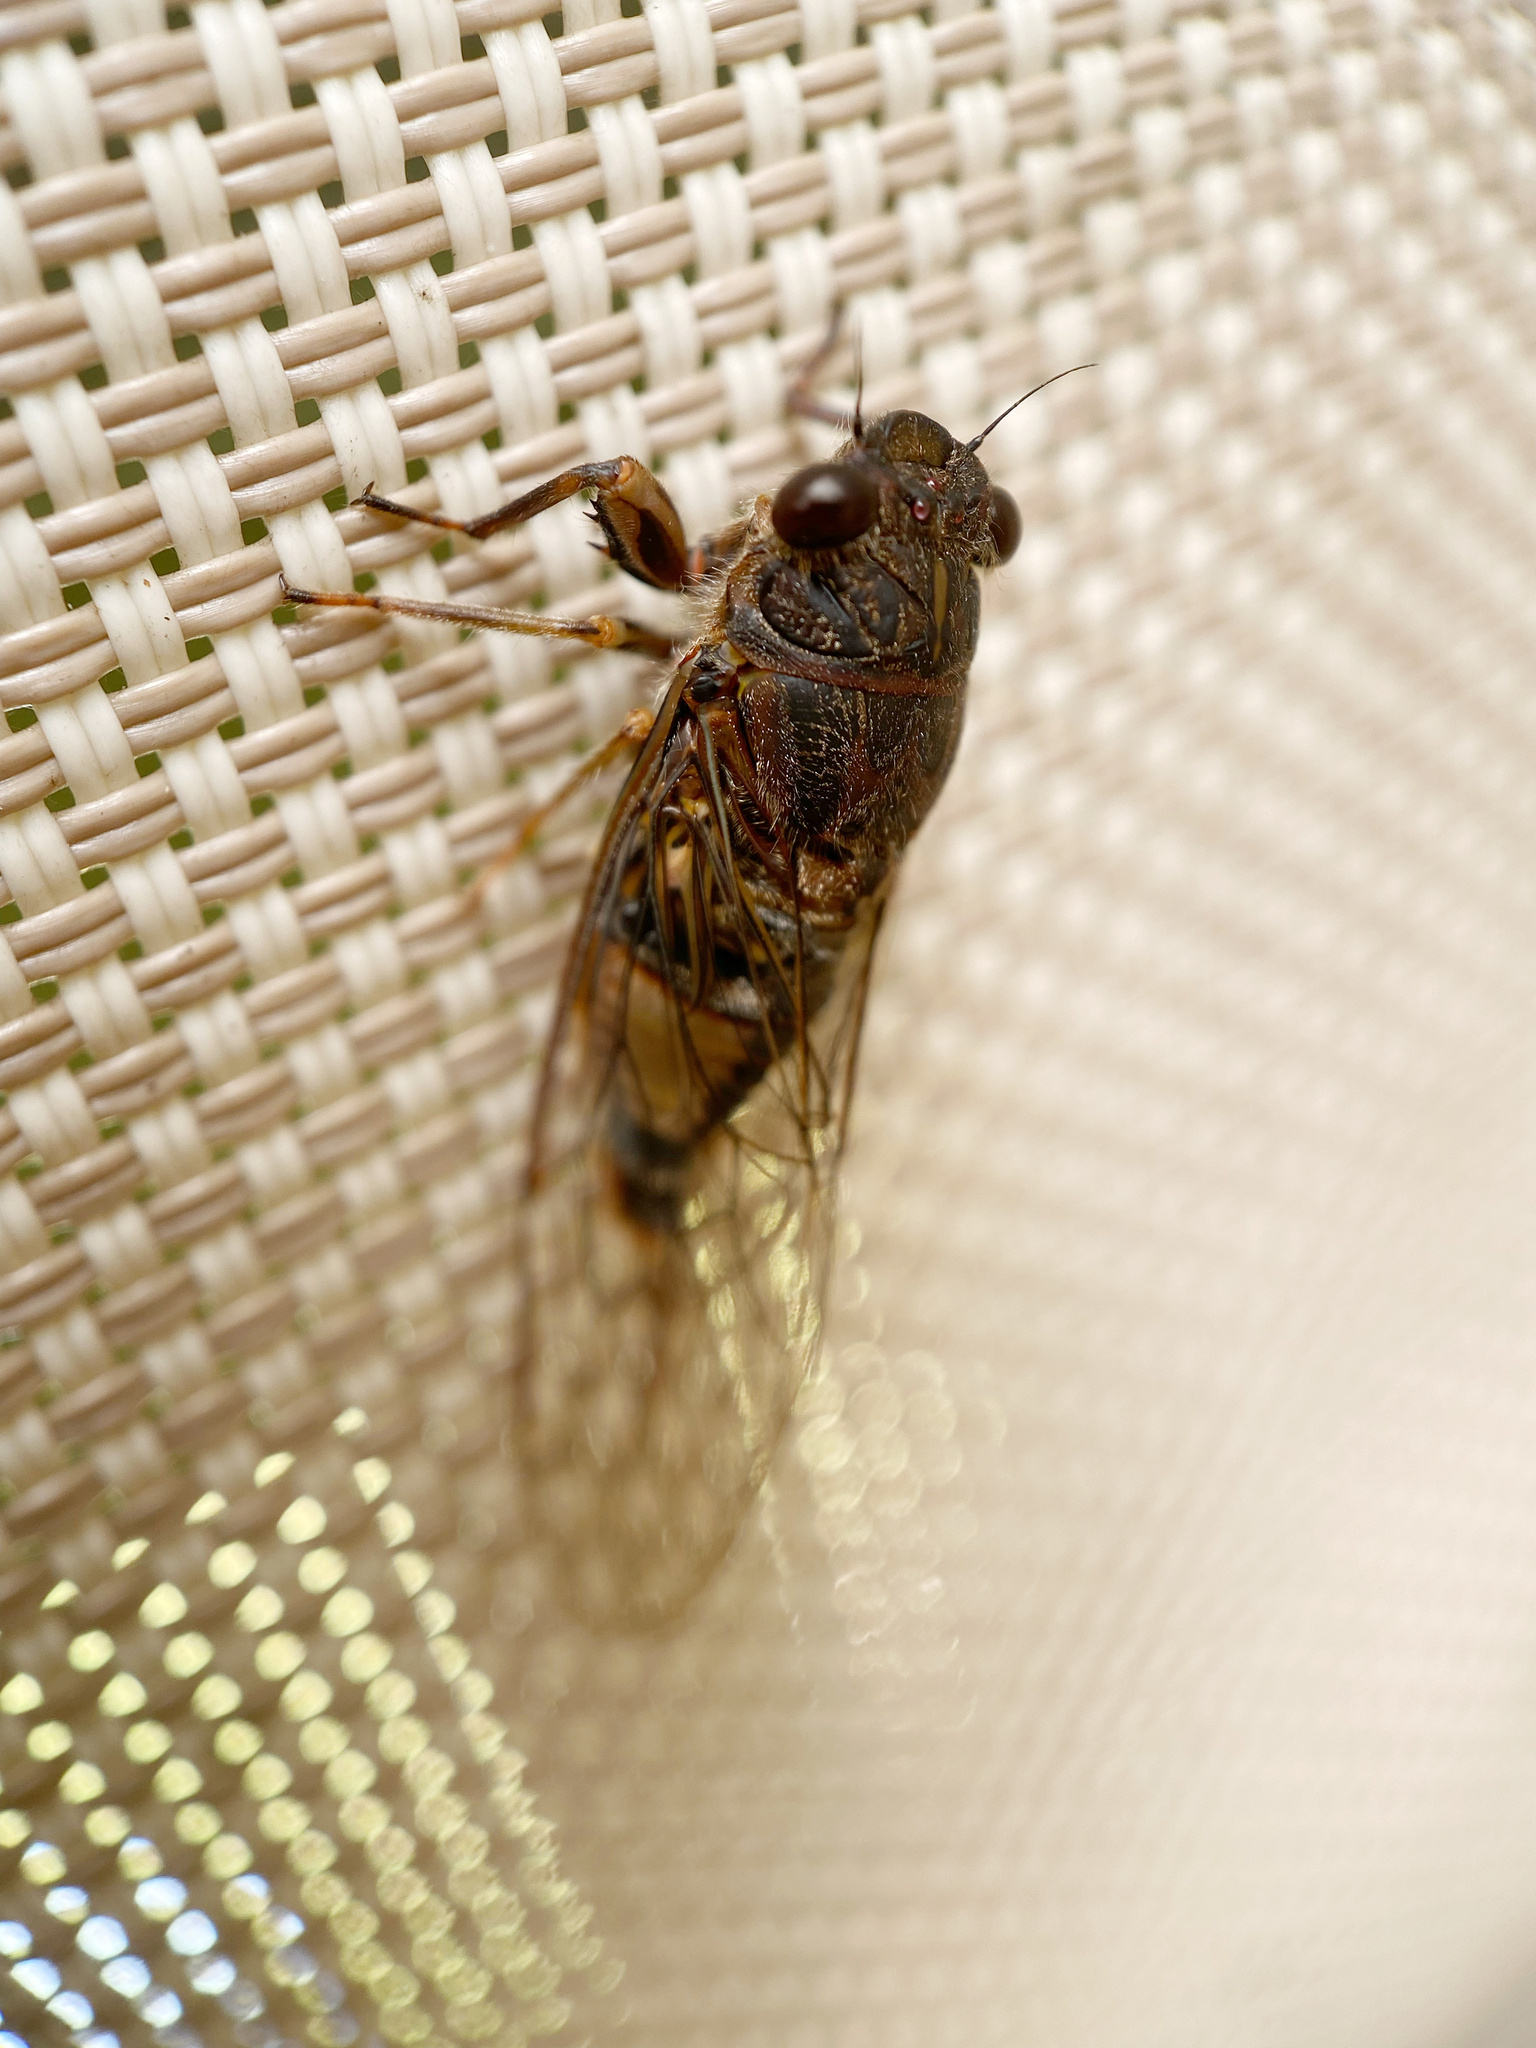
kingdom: Animalia
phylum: Arthropoda
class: Insecta
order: Hemiptera
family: Cicadidae
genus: Yoyetta
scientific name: Yoyetta repetens
